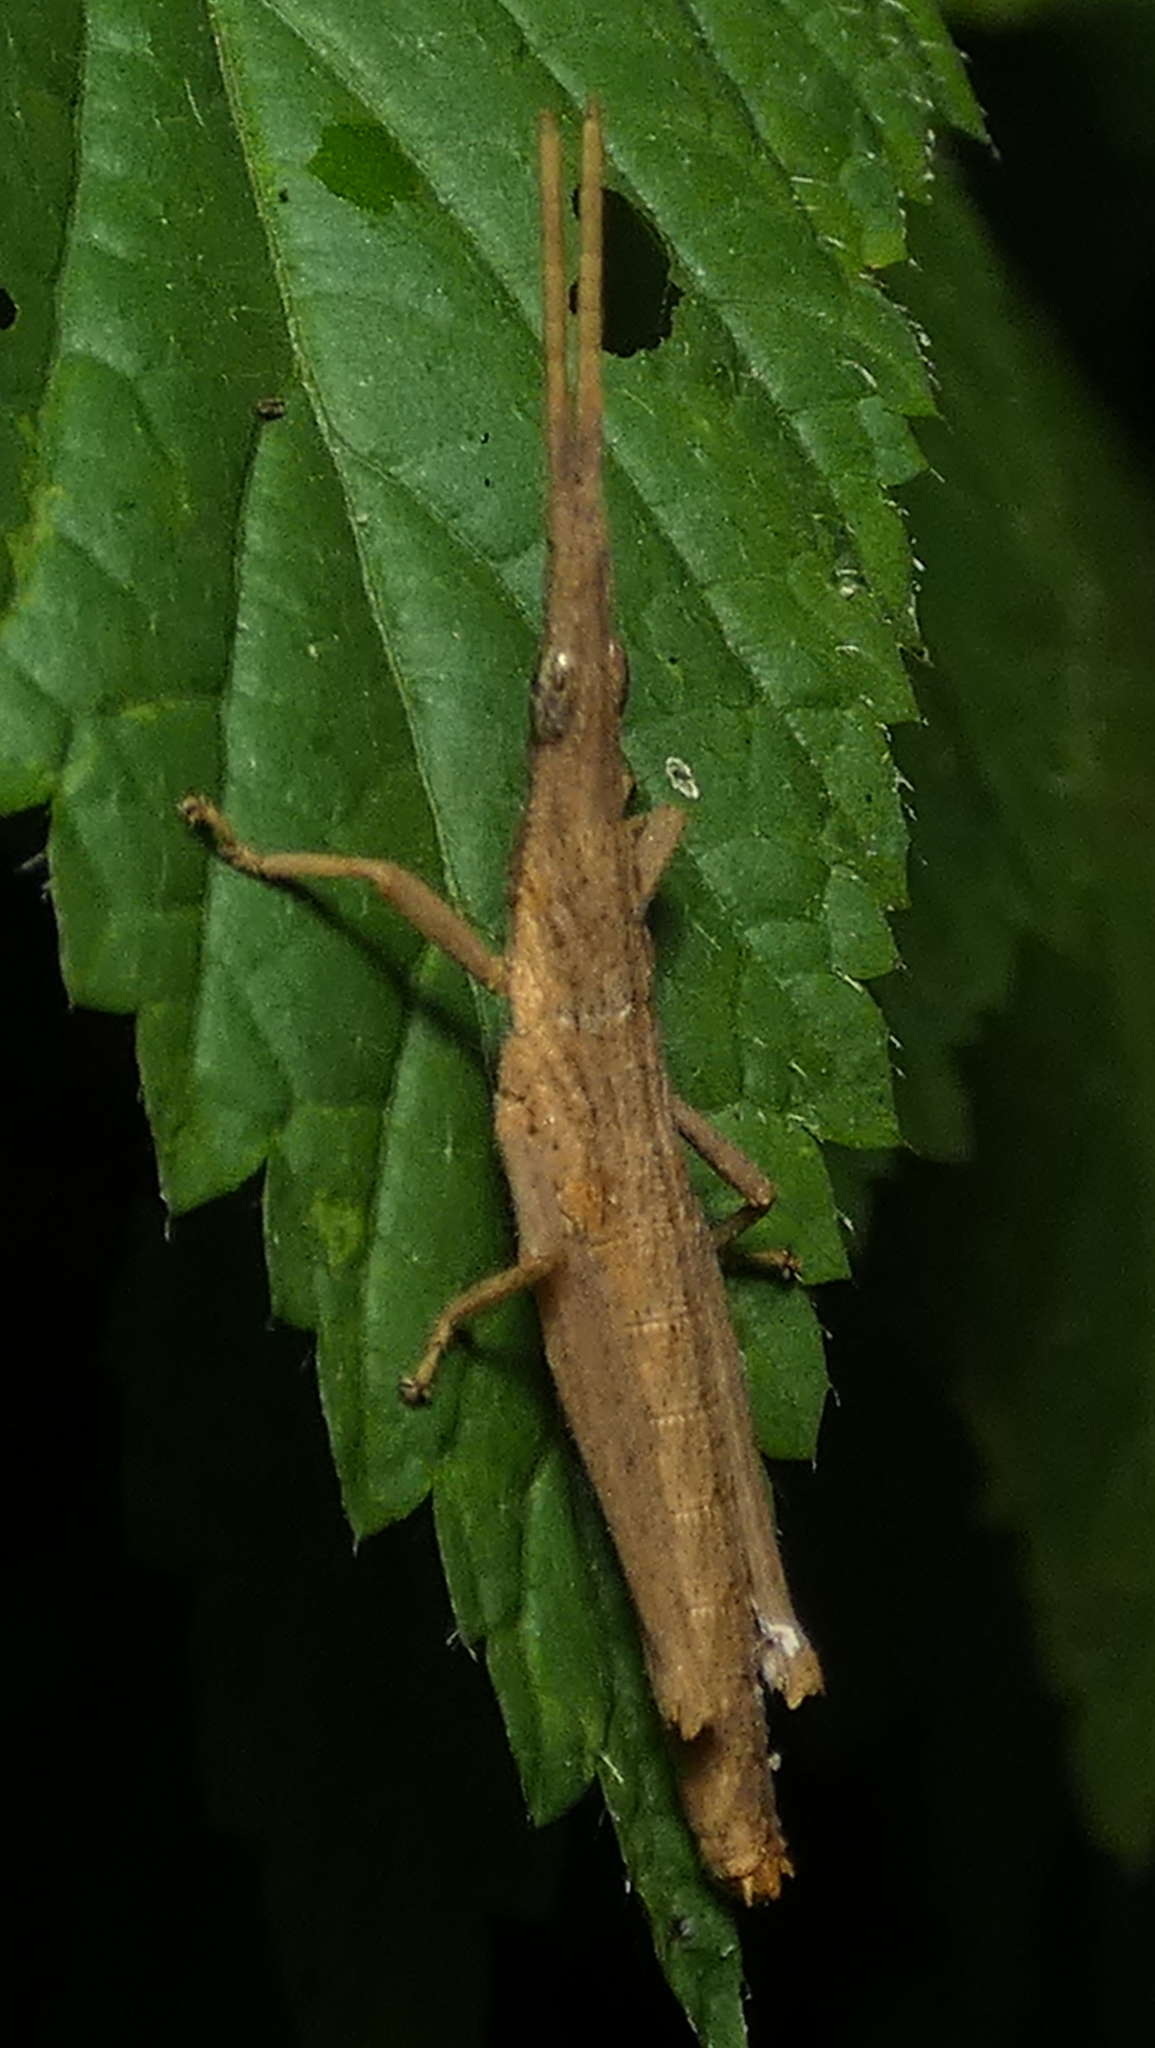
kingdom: Animalia
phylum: Arthropoda
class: Insecta
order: Orthoptera
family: Pyrgomorphidae
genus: Algete
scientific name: Algete brunneri
